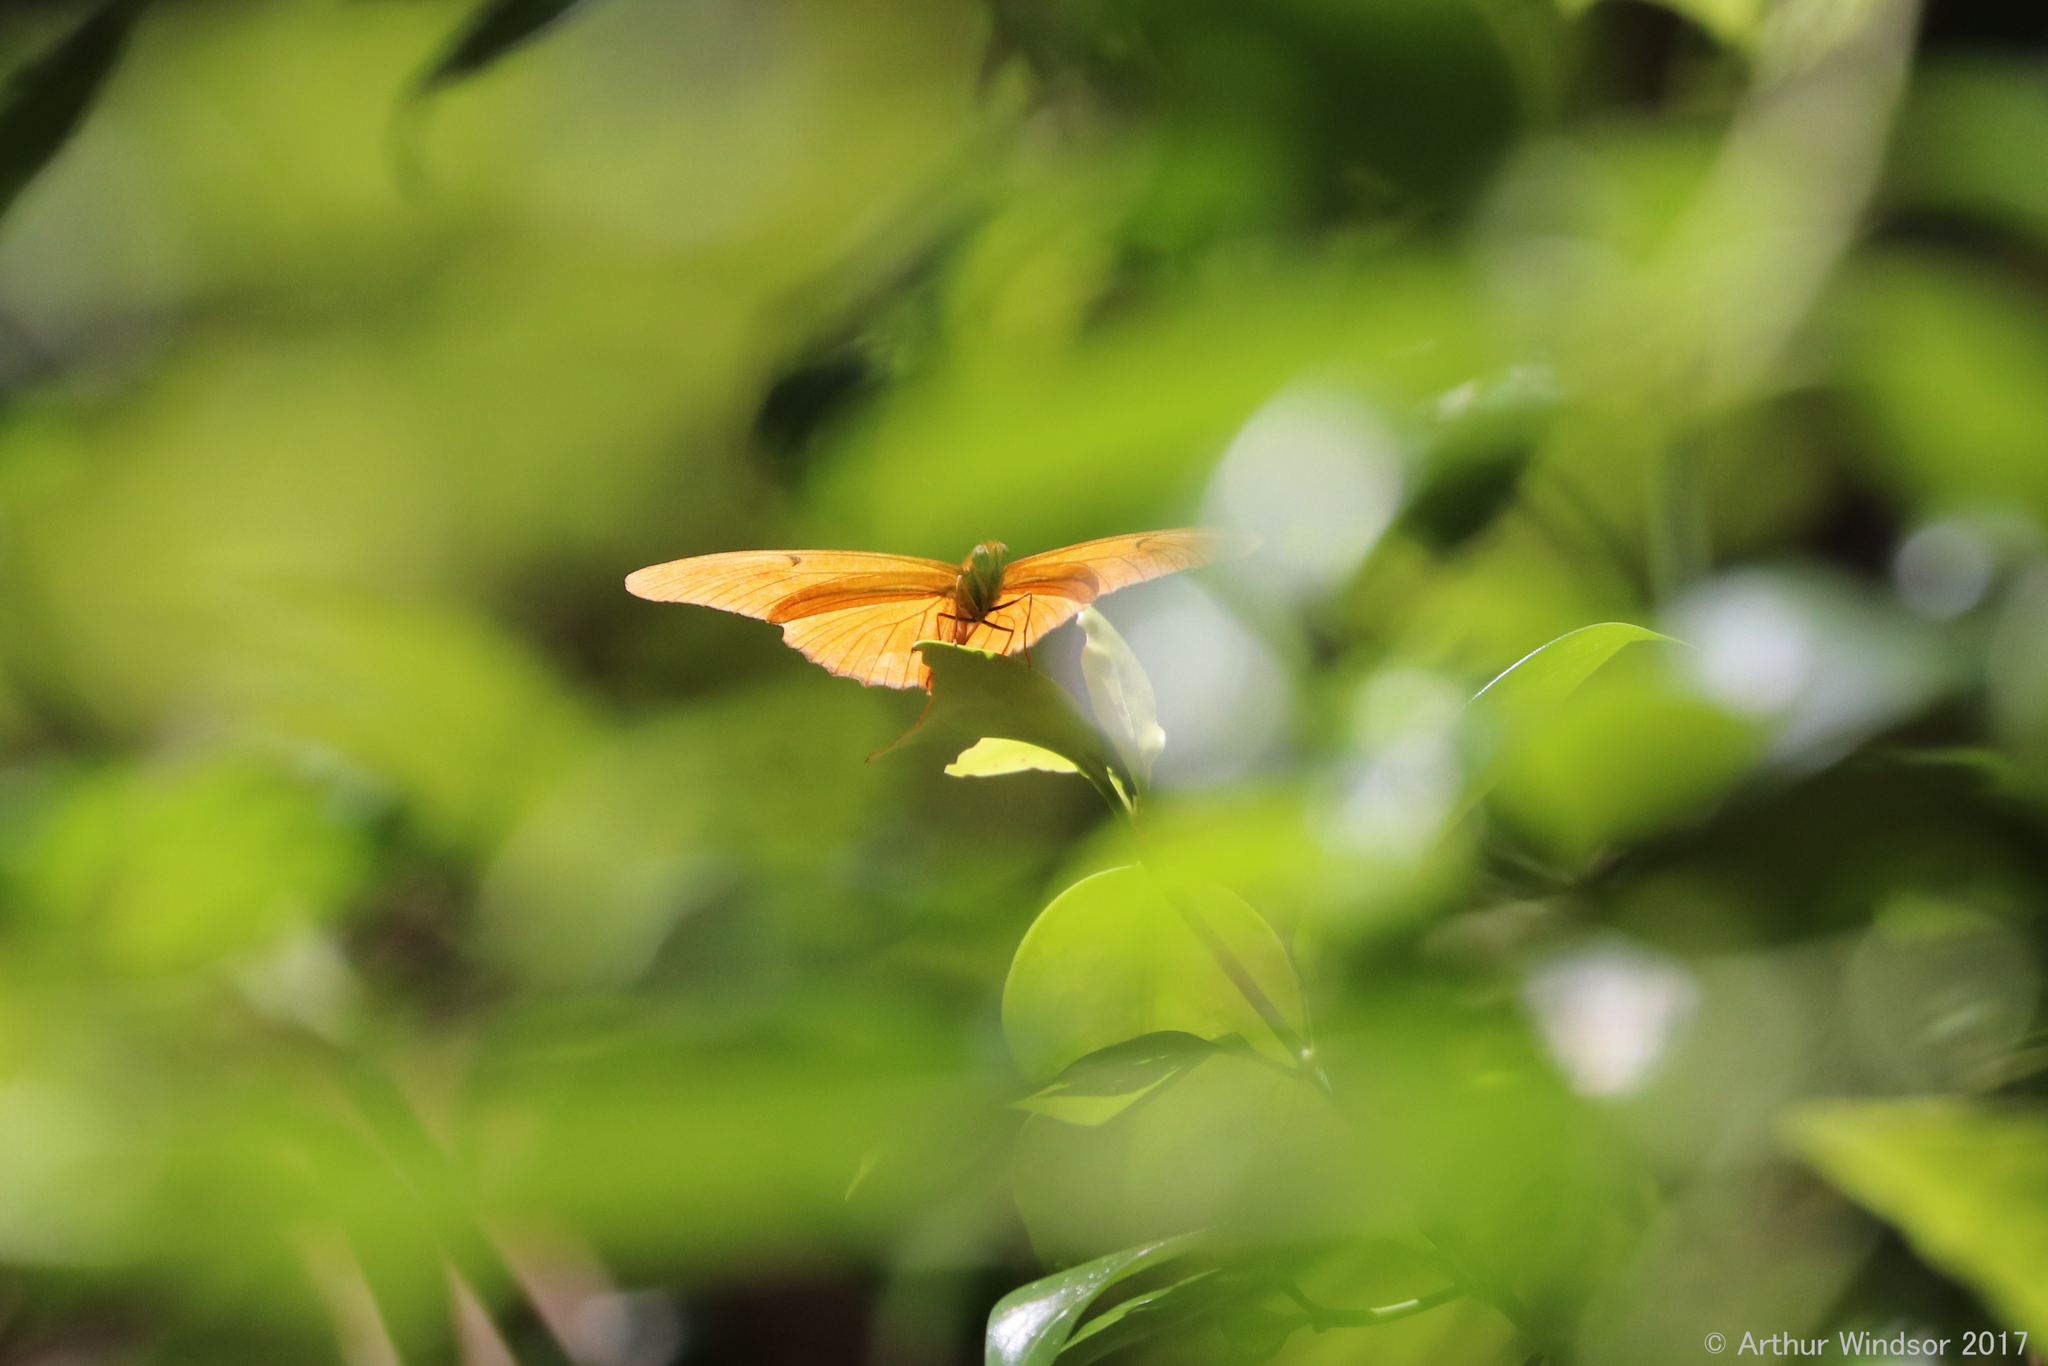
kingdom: Animalia
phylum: Arthropoda
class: Insecta
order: Lepidoptera
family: Nymphalidae
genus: Dryas
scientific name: Dryas iulia
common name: Flambeau
